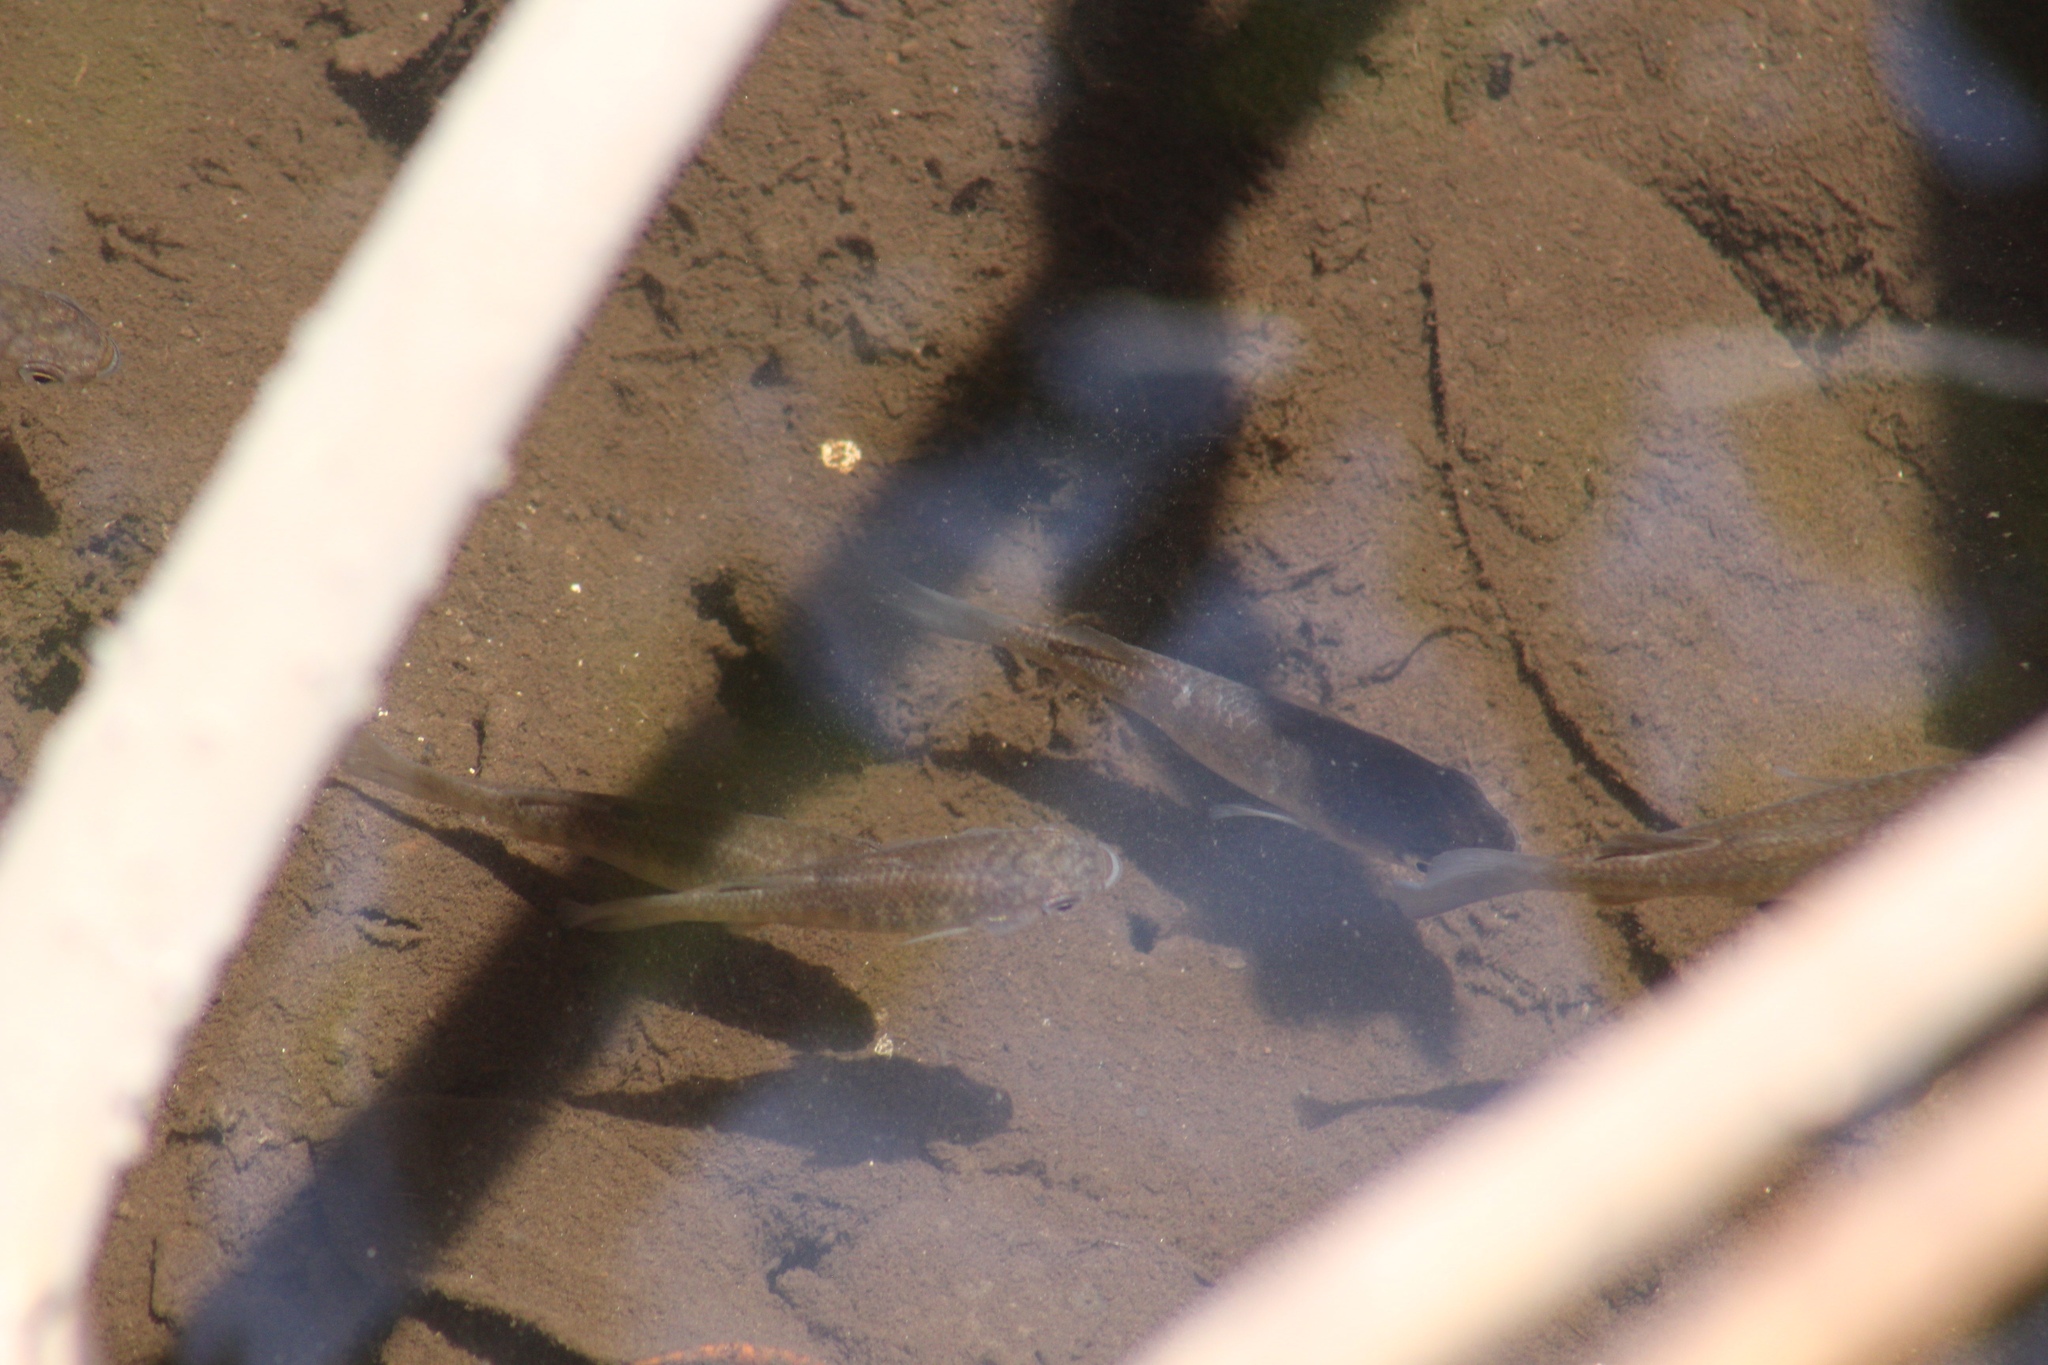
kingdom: Animalia
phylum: Chordata
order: Cyprinodontiformes
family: Fundulidae
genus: Fundulus
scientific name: Fundulus grandis
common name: Gulf killifish
